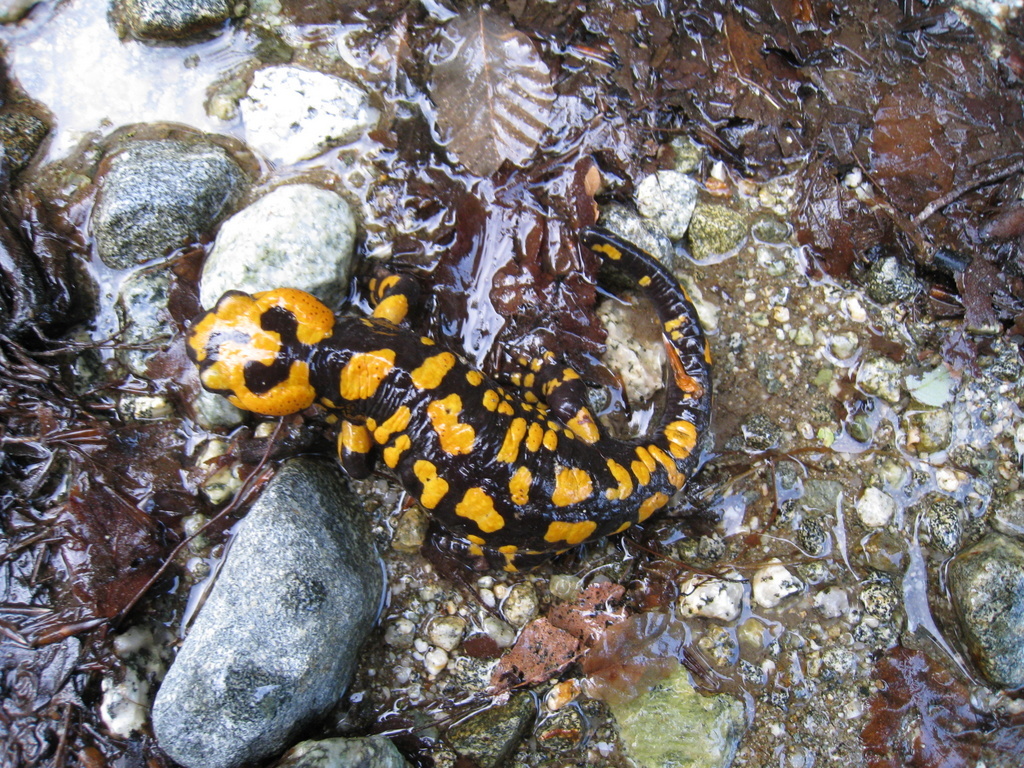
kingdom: Animalia
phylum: Chordata
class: Amphibia
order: Caudata
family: Salamandridae
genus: Salamandra
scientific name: Salamandra corsica
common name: Corsican fire salamander
